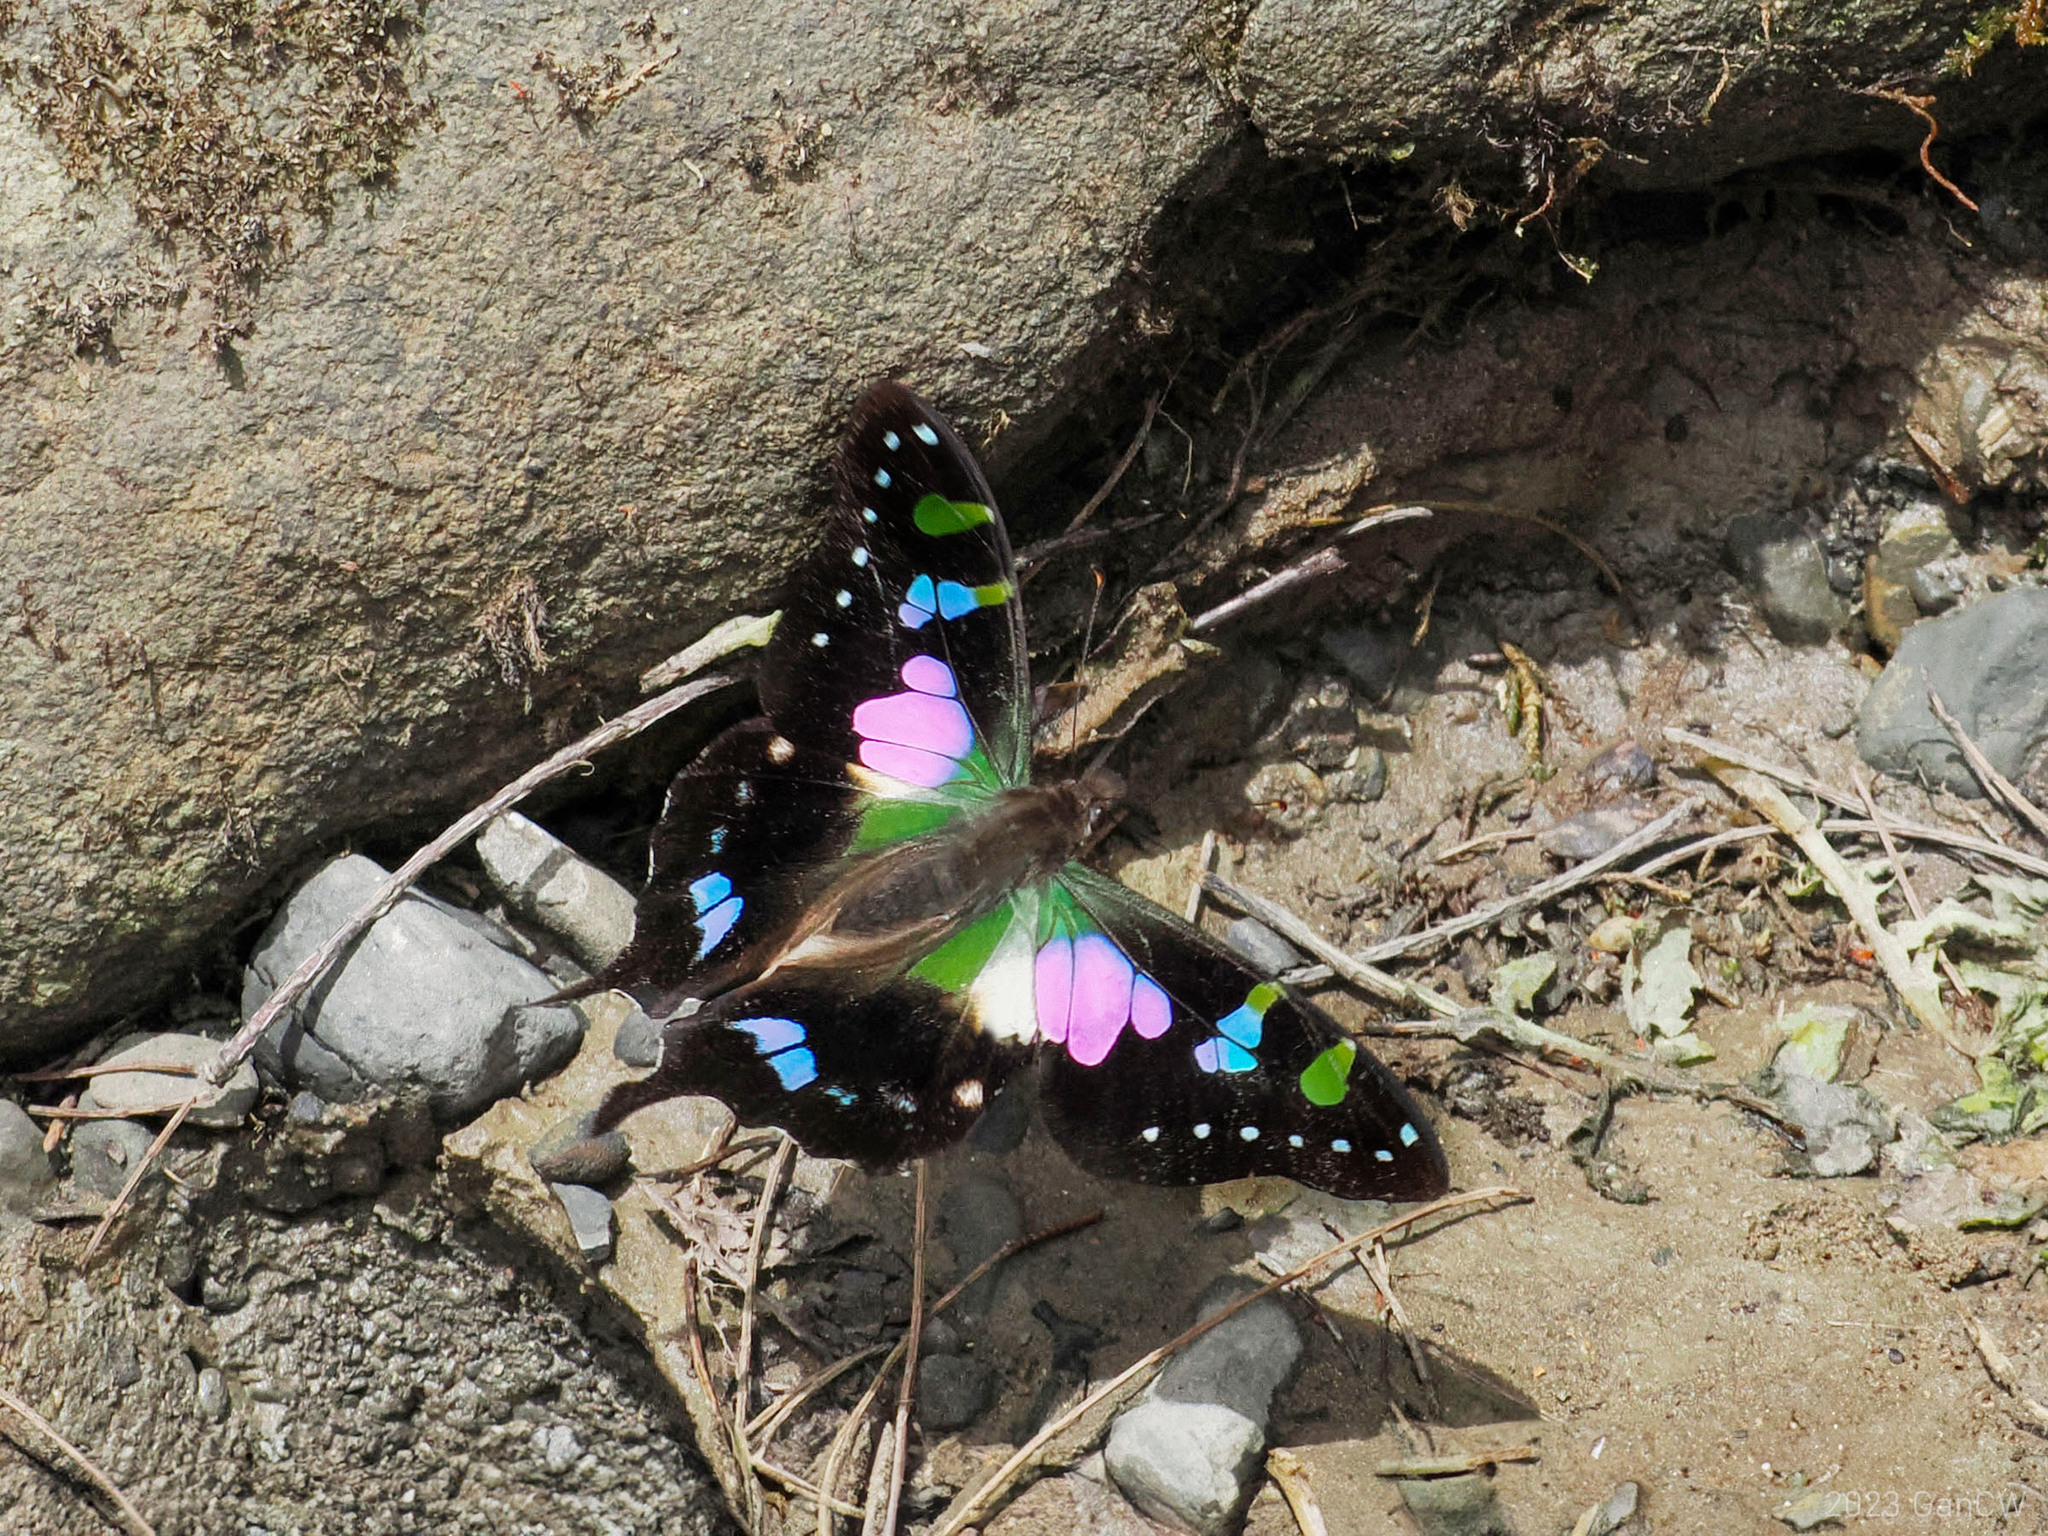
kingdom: Animalia
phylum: Arthropoda
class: Insecta
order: Lepidoptera
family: Papilionidae
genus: Graphium
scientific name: Graphium weiskei
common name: Purple spotted swallowtail
